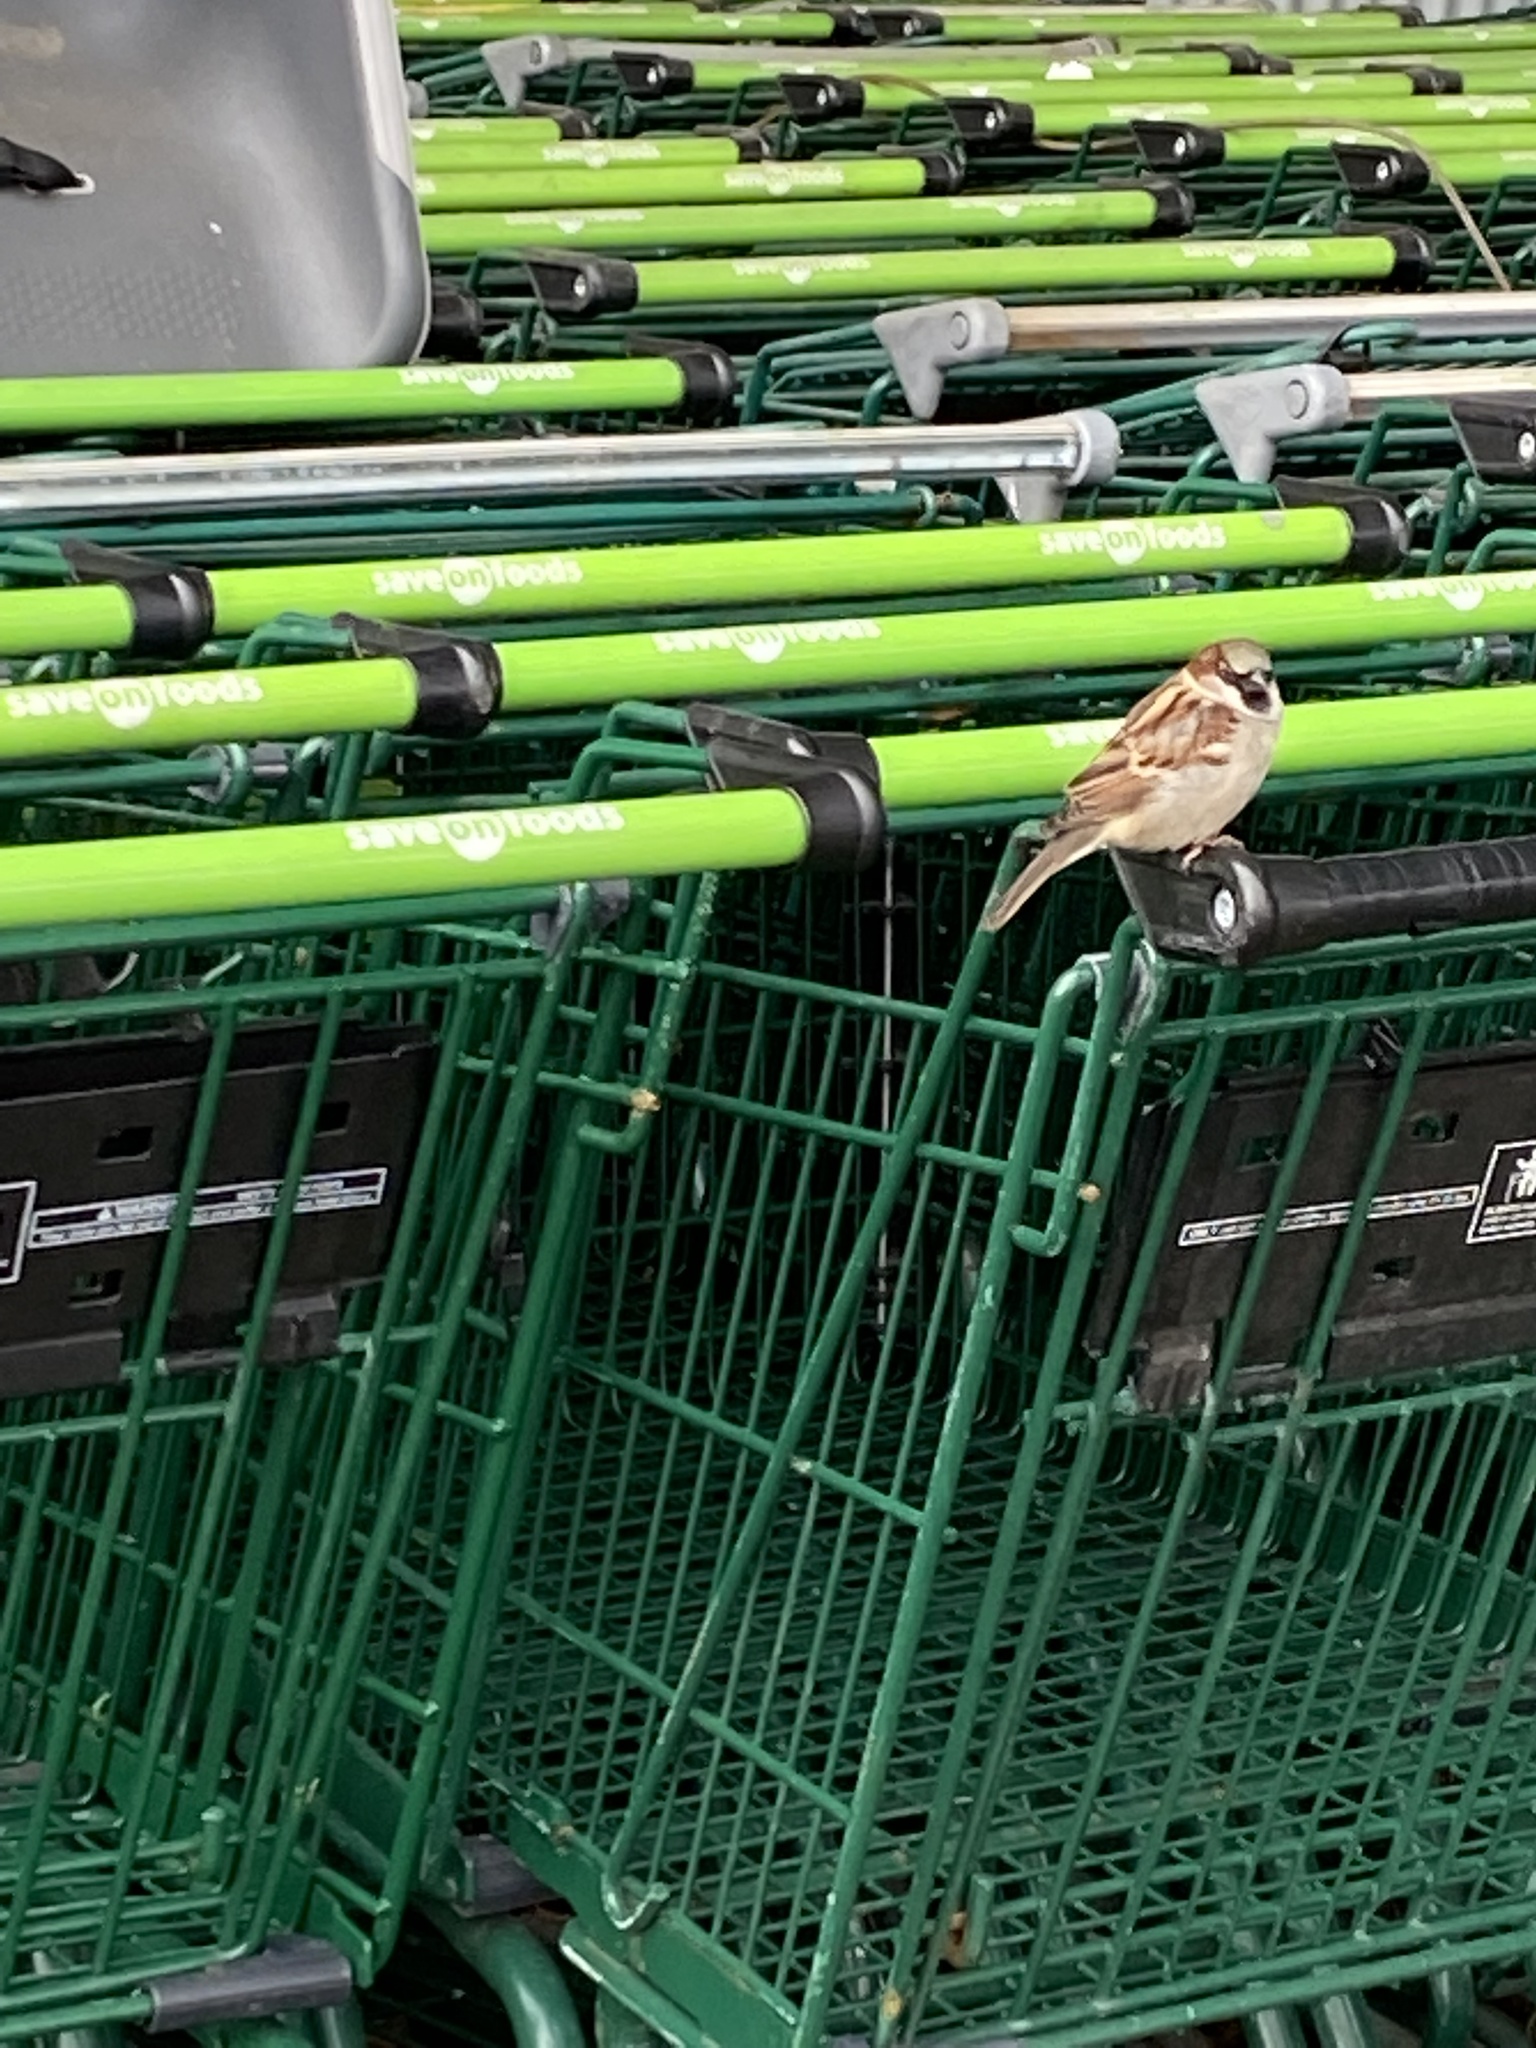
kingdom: Animalia
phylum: Chordata
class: Aves
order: Passeriformes
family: Passeridae
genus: Passer
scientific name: Passer domesticus
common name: House sparrow
